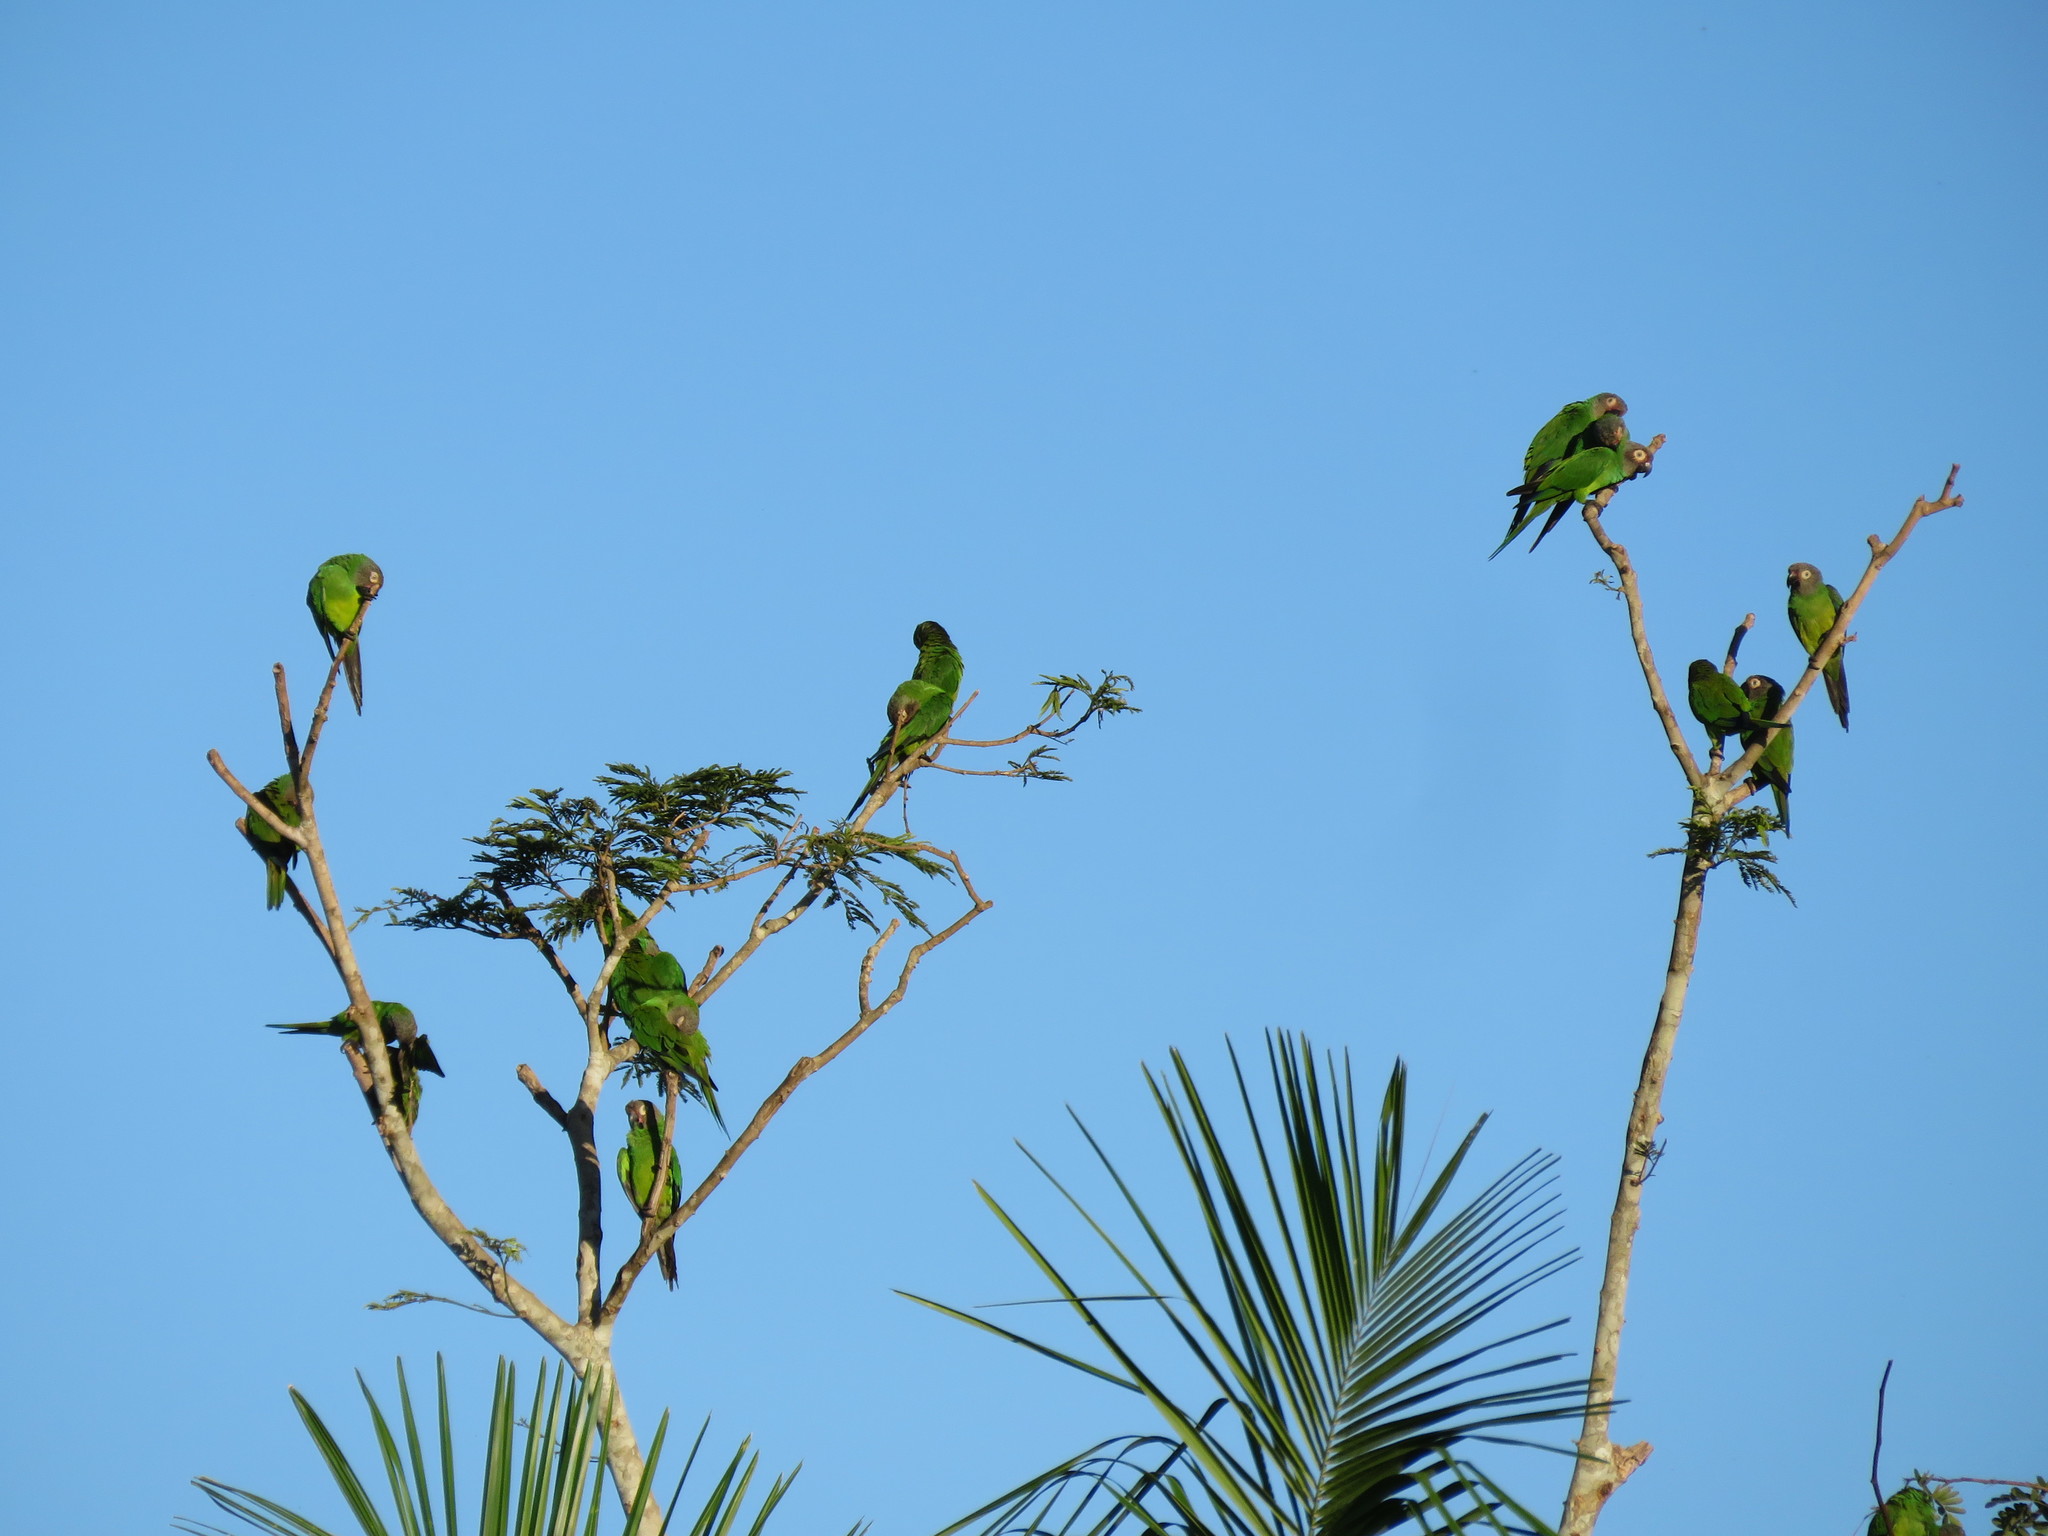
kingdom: Animalia
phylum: Chordata
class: Aves
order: Psittaciformes
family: Psittacidae
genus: Aratinga
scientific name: Aratinga weddellii
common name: Dusky-headed parakeet
